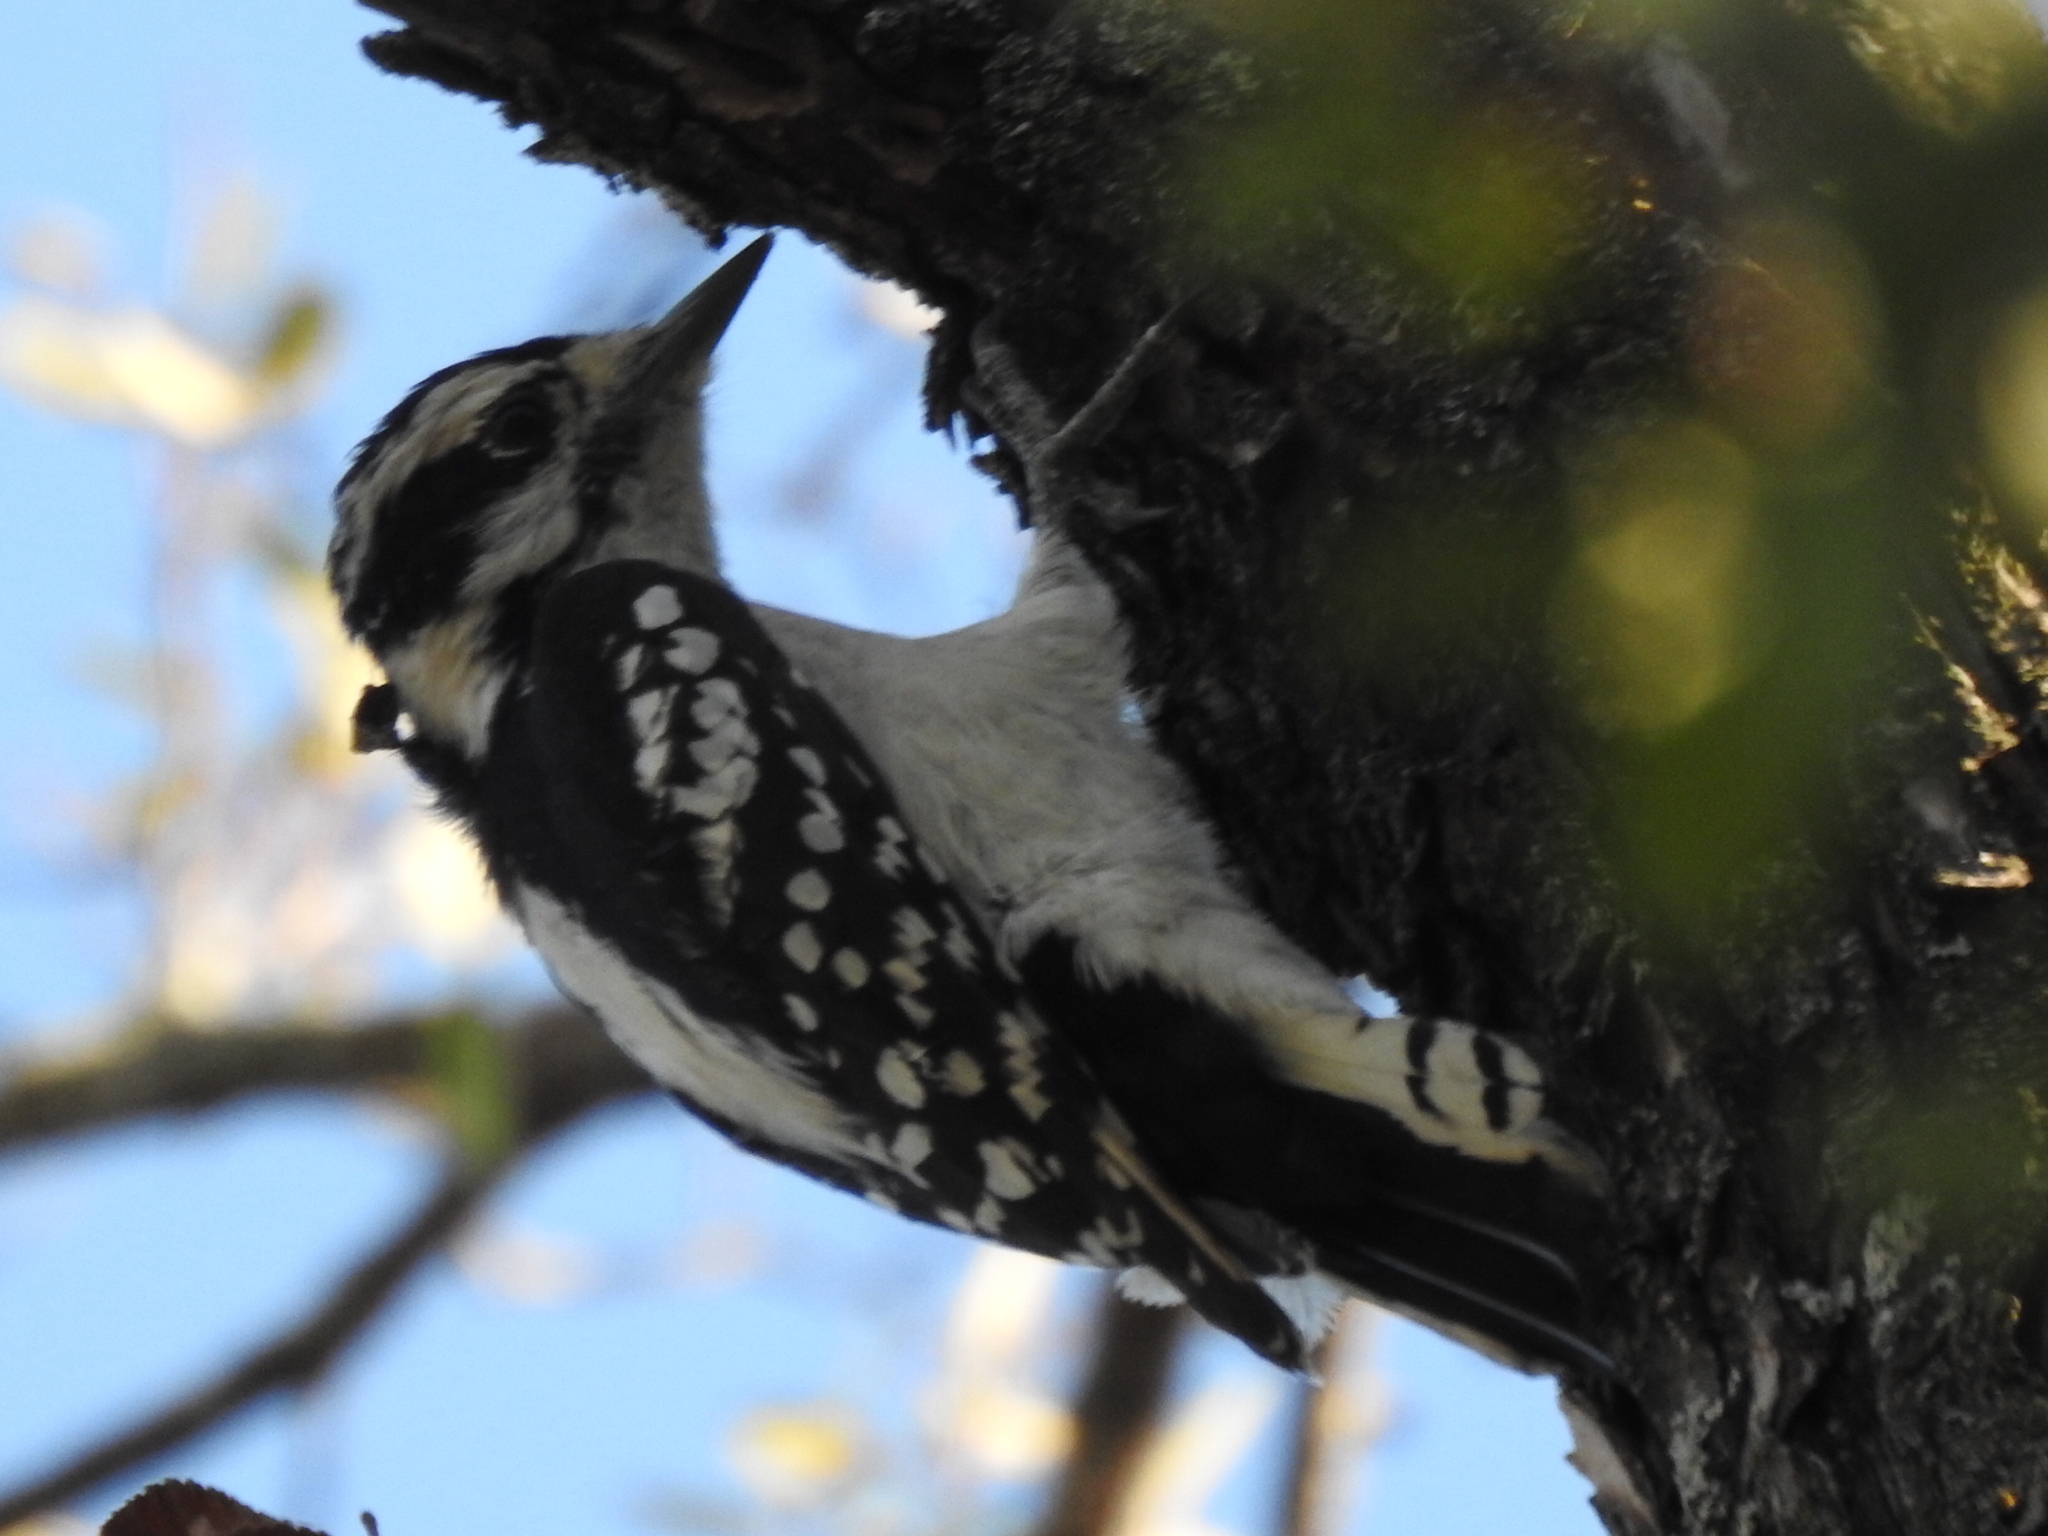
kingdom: Animalia
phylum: Chordata
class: Aves
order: Piciformes
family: Picidae
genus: Dryobates
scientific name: Dryobates pubescens
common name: Downy woodpecker
